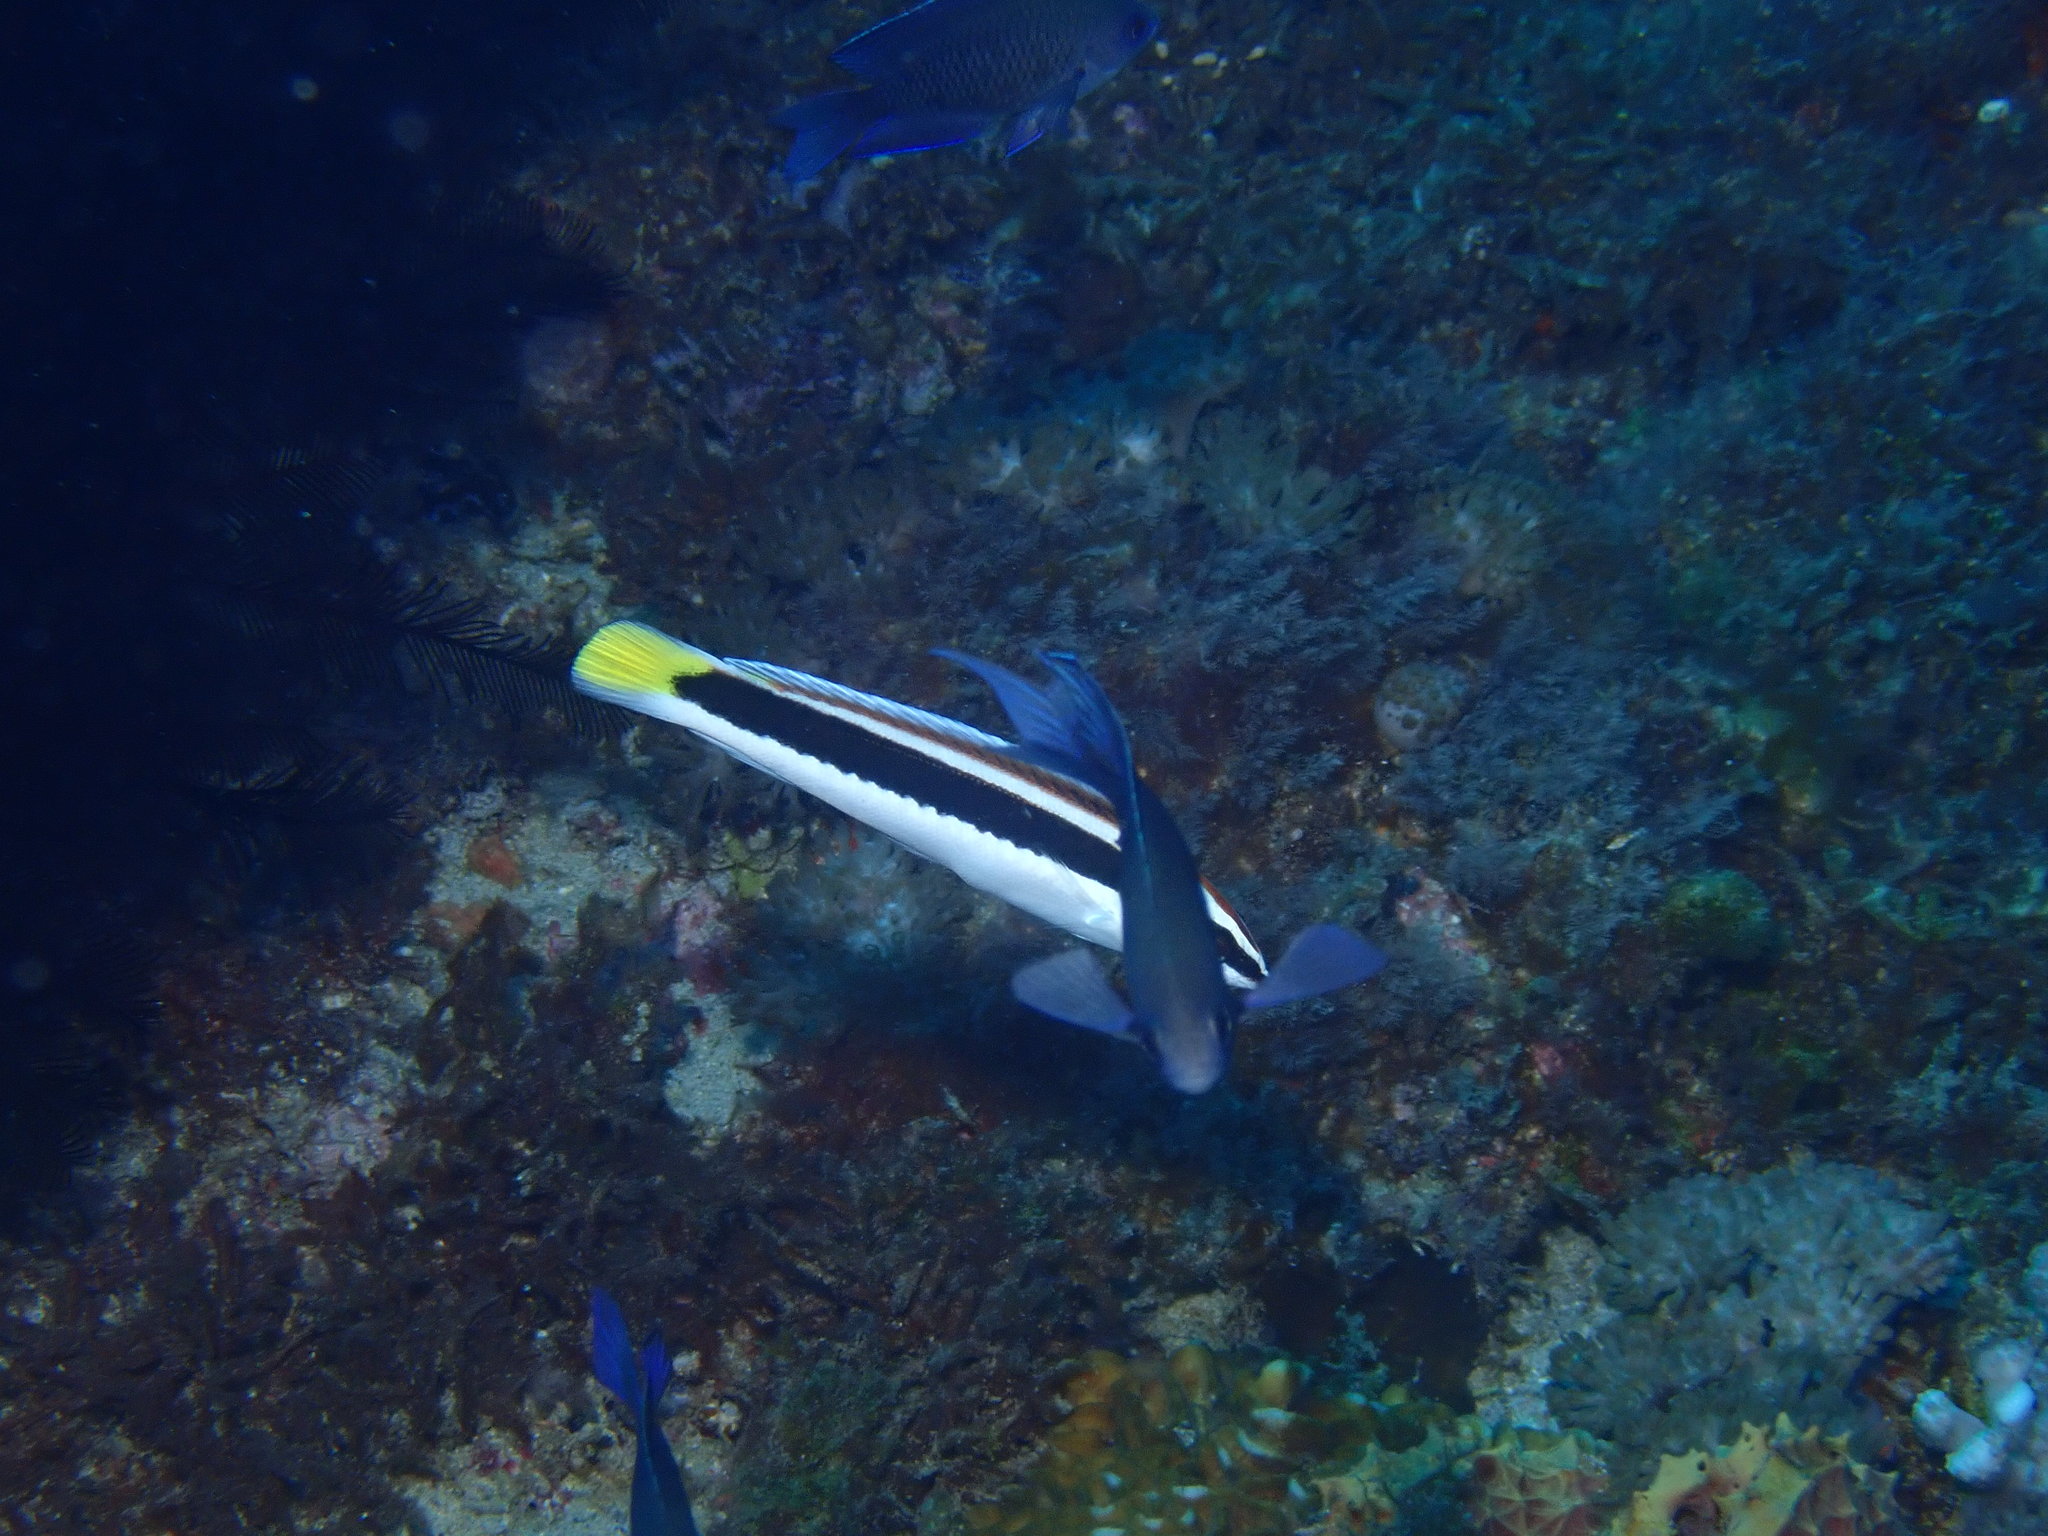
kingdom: Animalia
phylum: Chordata
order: Perciformes
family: Labridae
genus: Coris
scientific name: Coris picta
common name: Combfish
